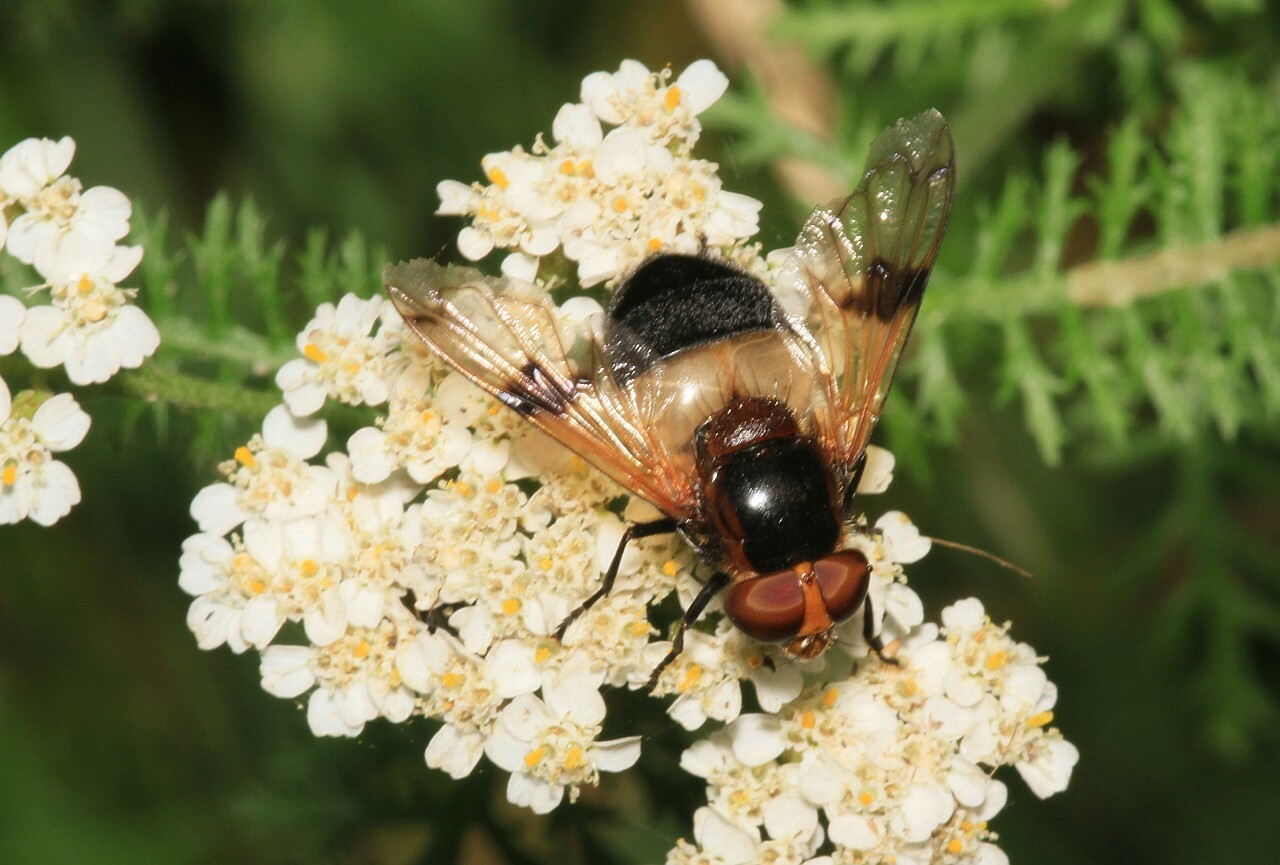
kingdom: Animalia
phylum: Arthropoda
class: Insecta
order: Diptera
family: Syrphidae
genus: Volucella
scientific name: Volucella pellucens
